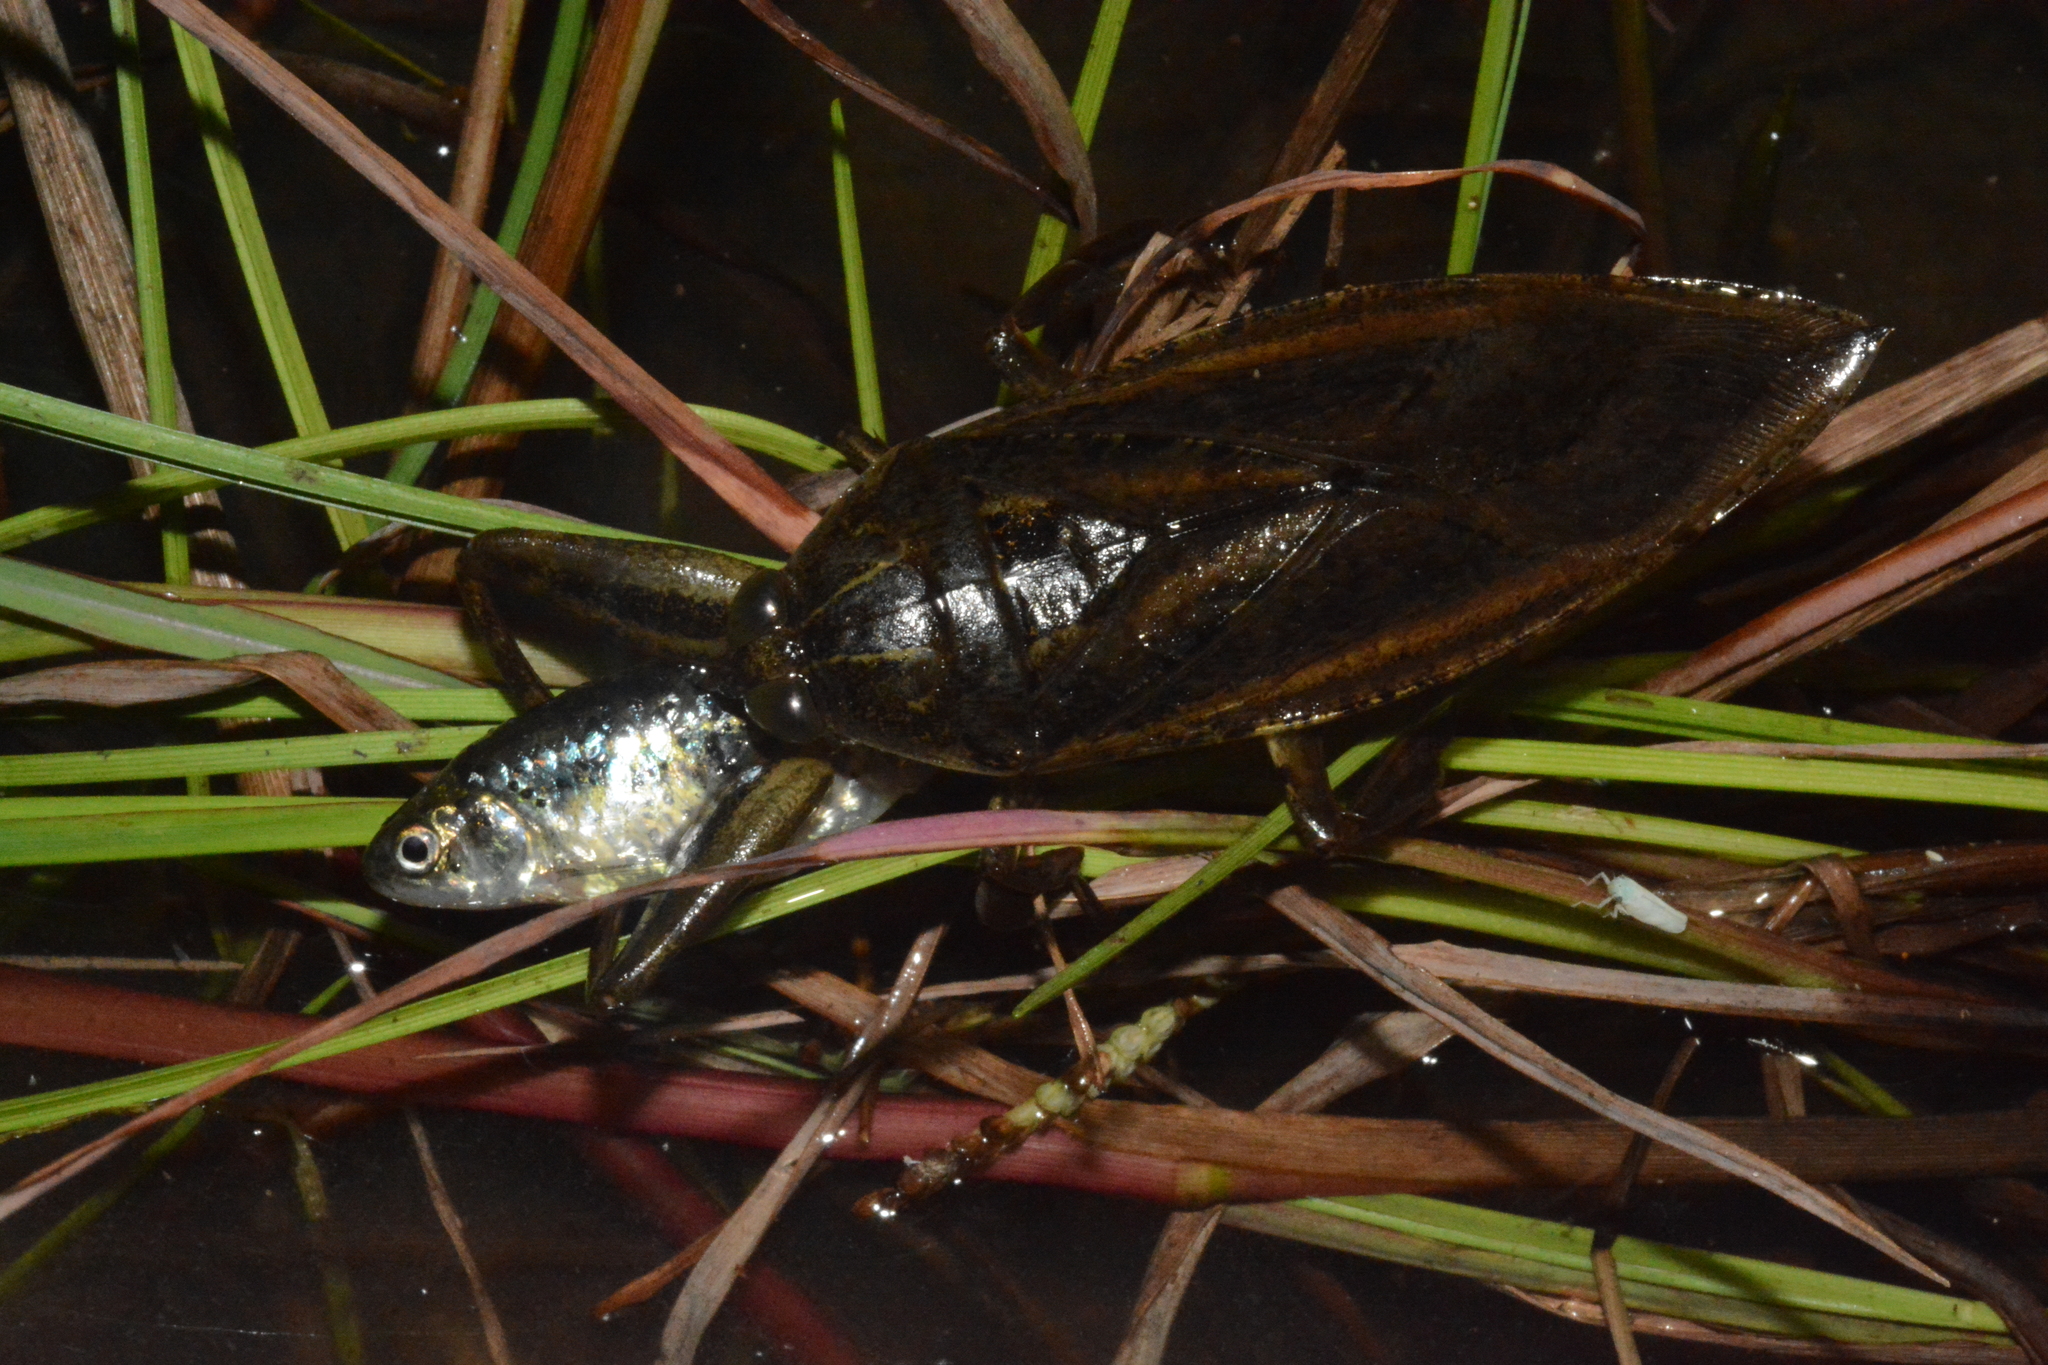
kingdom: Animalia
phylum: Arthropoda
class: Insecta
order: Hemiptera
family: Belostomatidae
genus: Lethocerus
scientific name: Lethocerus cordofanus
